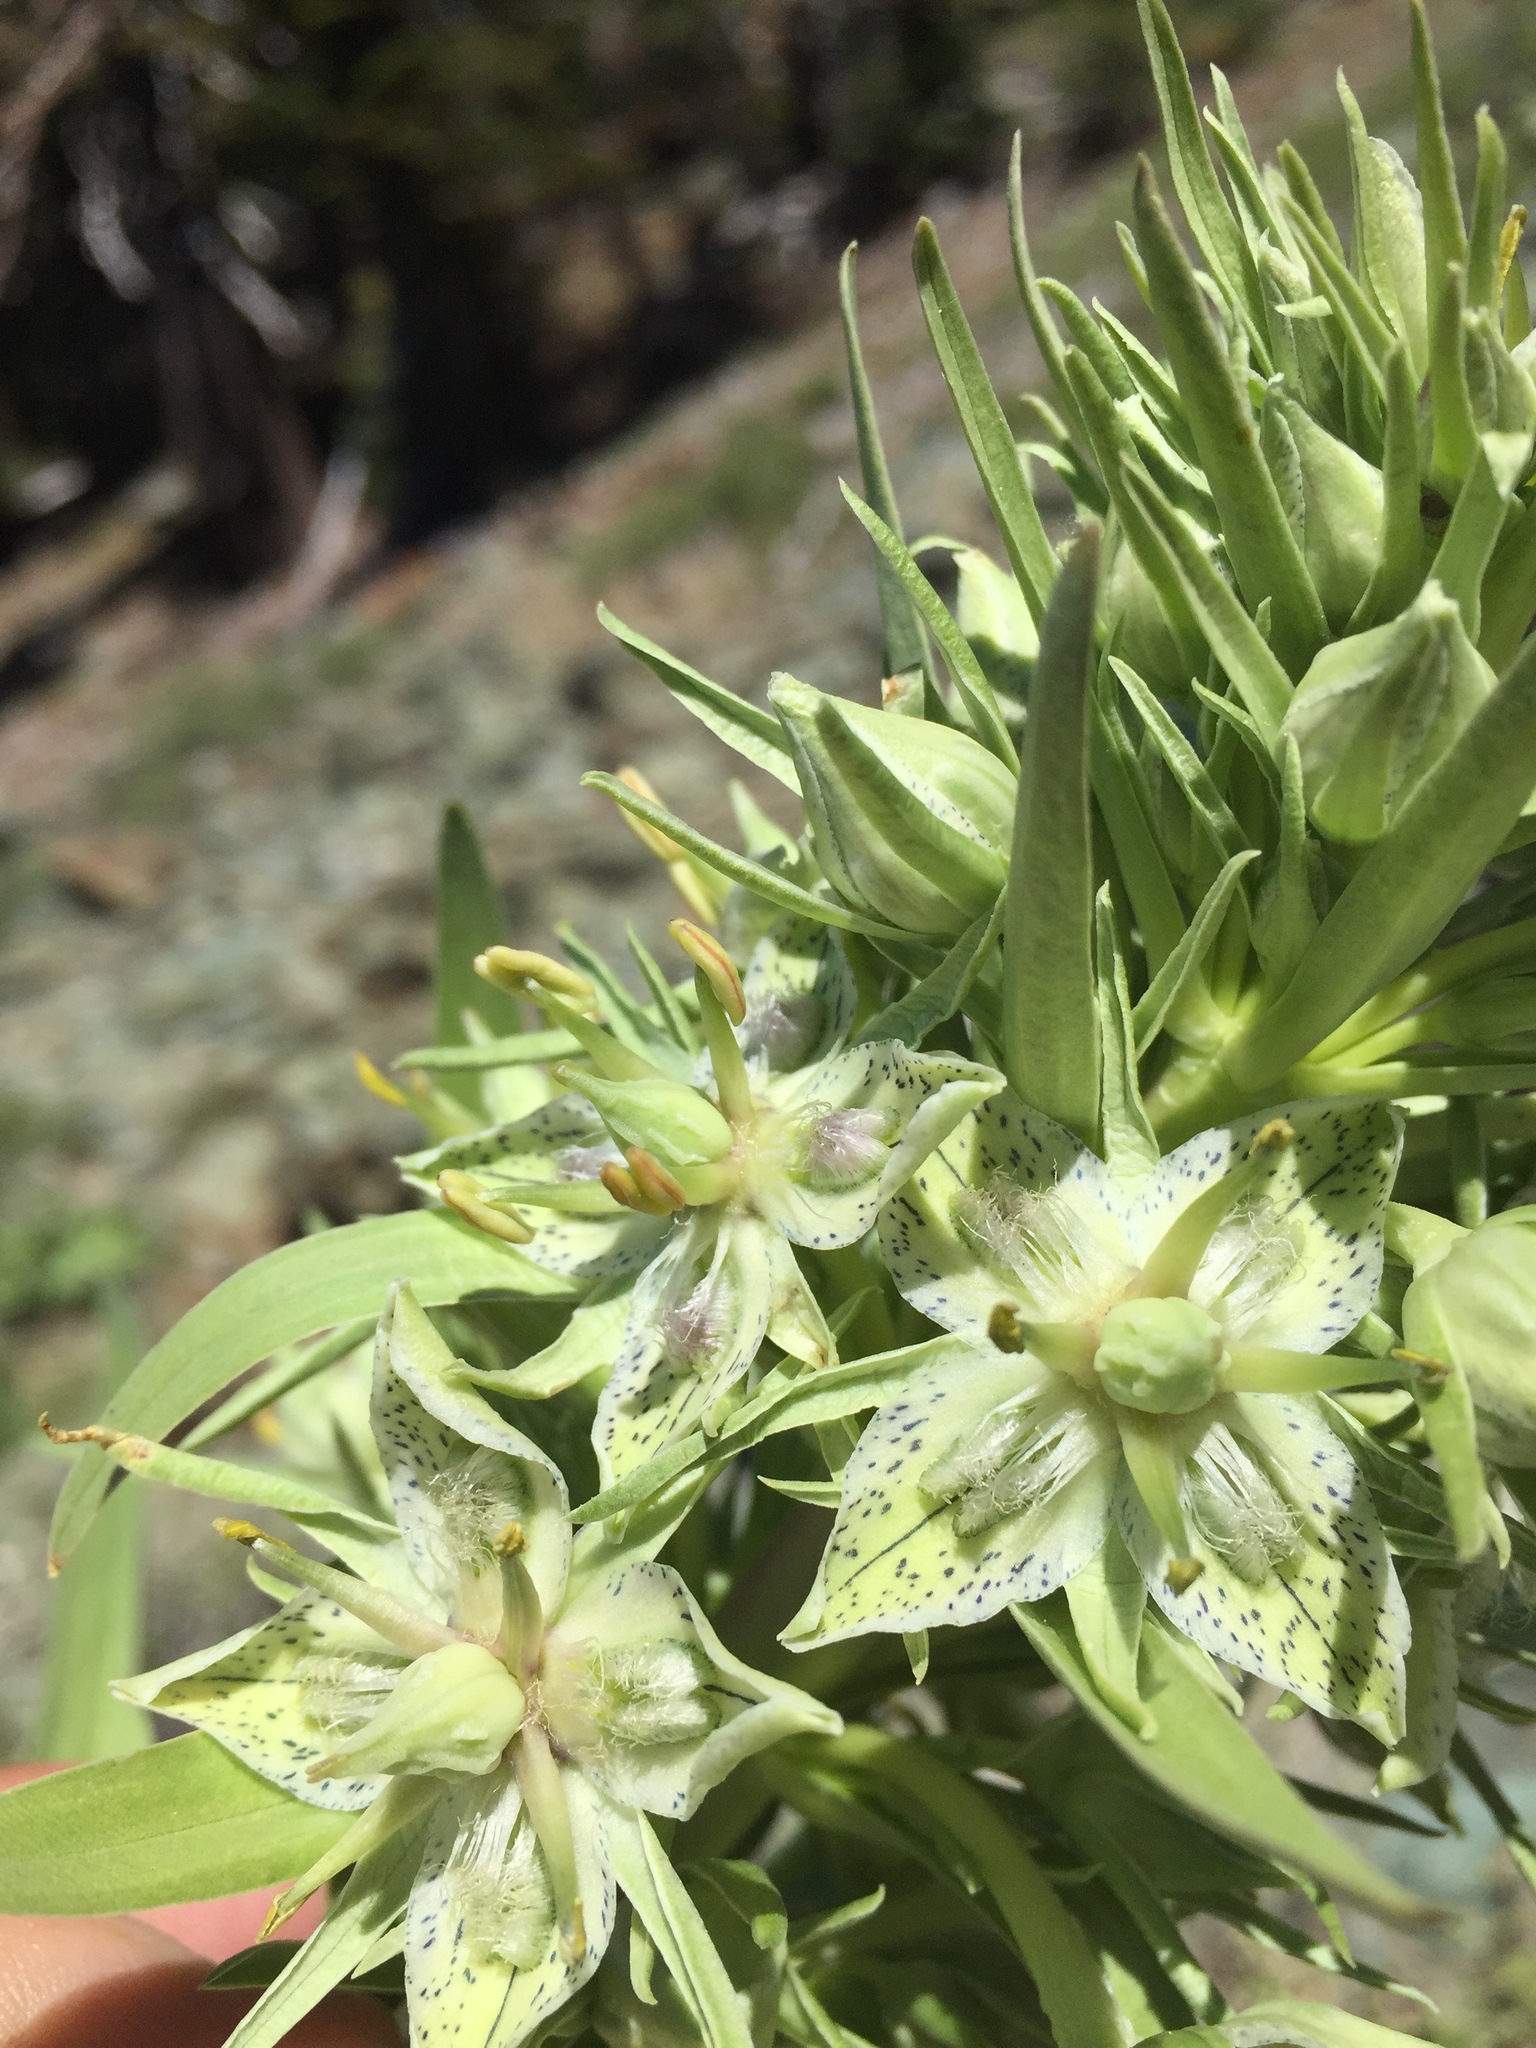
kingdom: Plantae
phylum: Tracheophyta
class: Magnoliopsida
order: Gentianales
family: Gentianaceae
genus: Frasera
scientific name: Frasera speciosa
